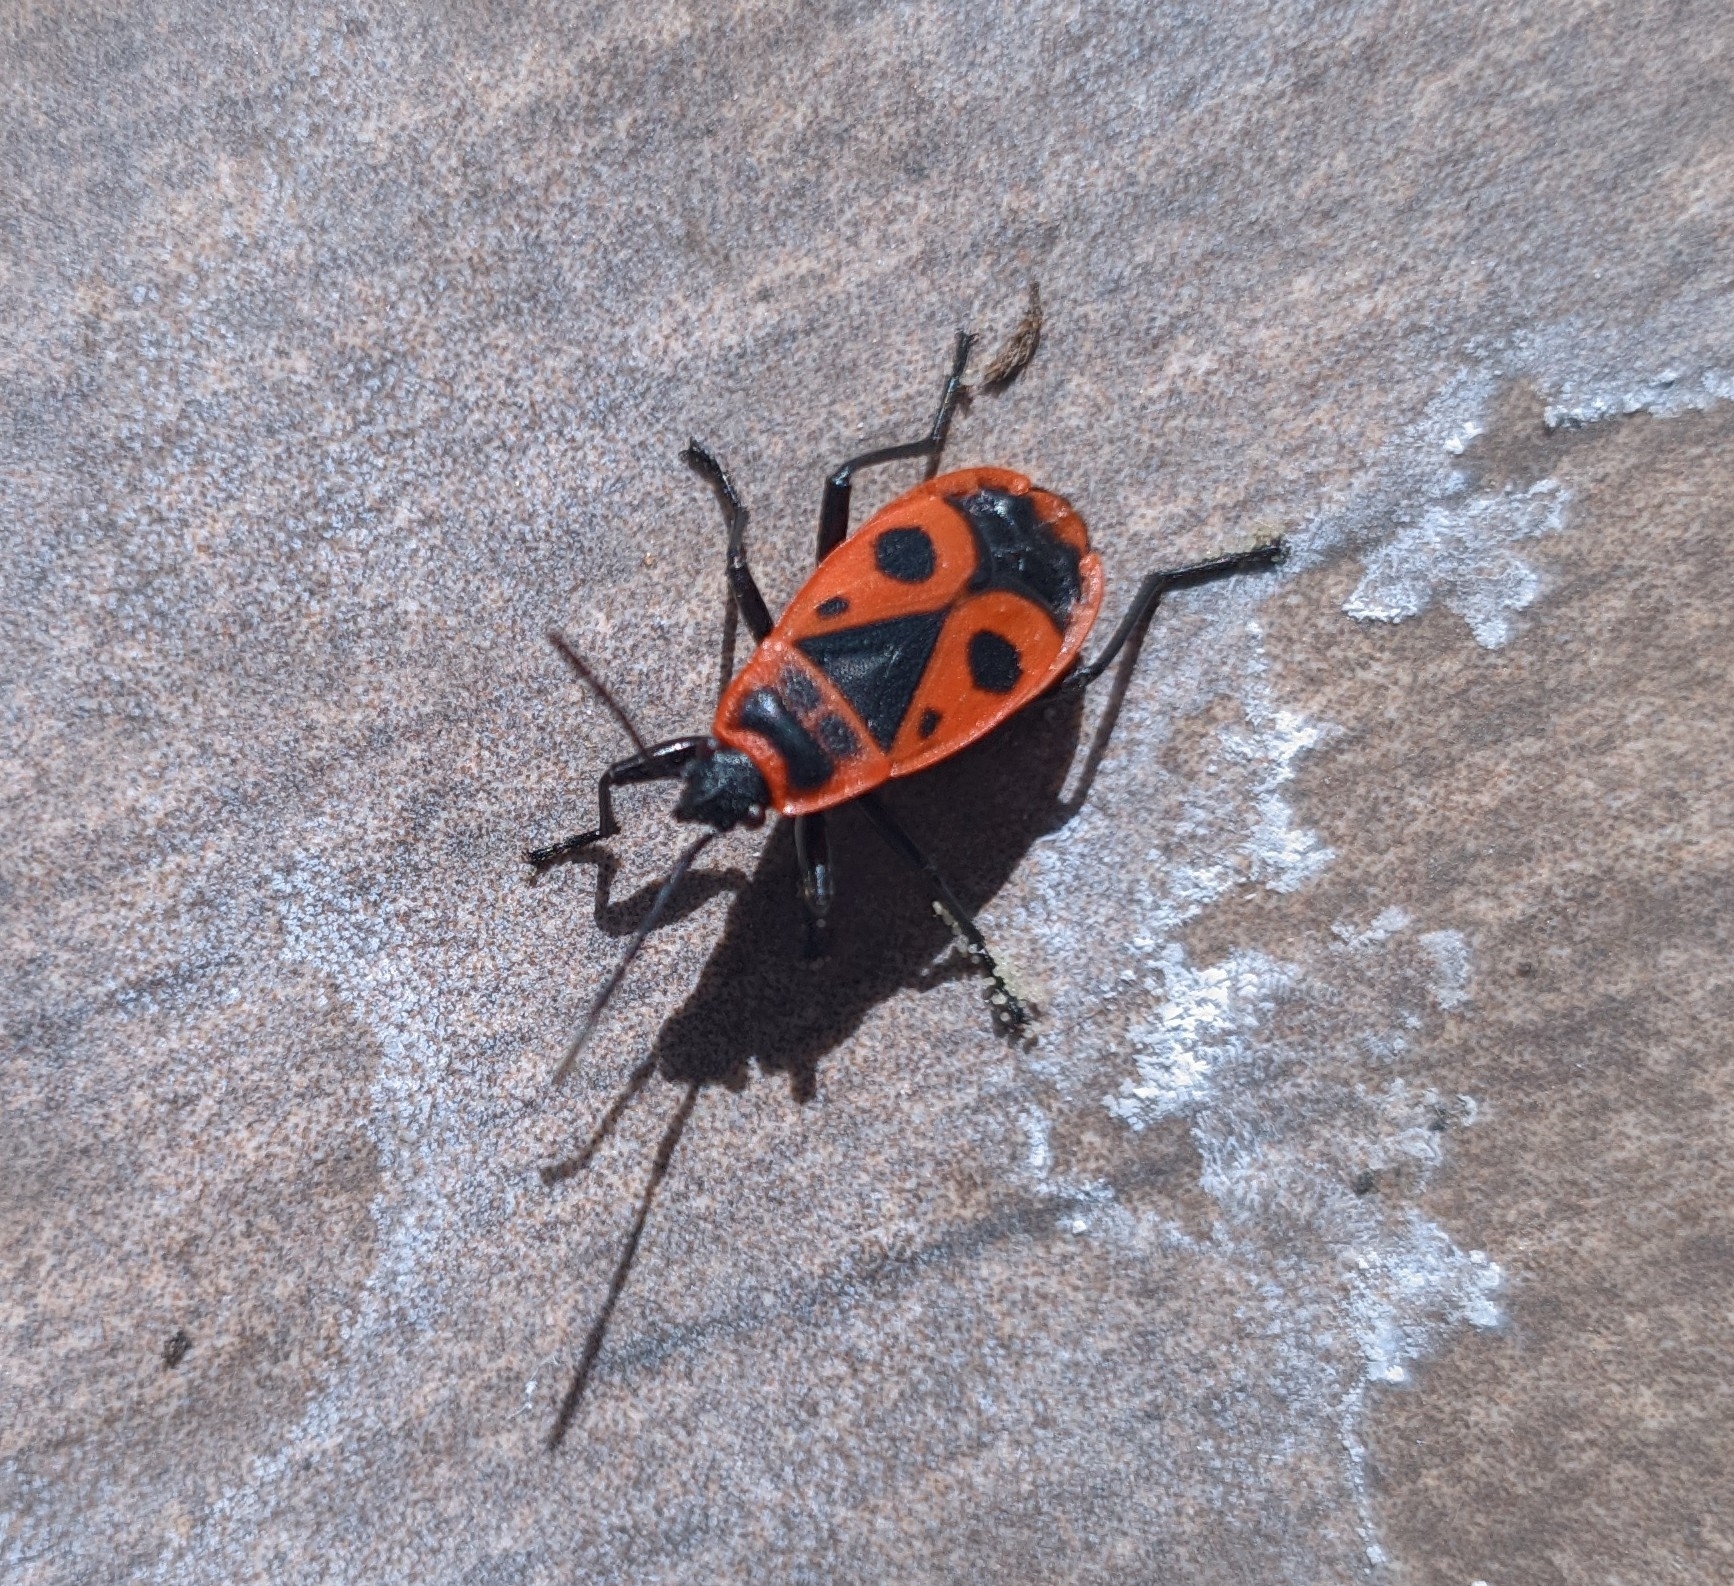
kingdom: Animalia
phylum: Arthropoda
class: Insecta
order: Hemiptera
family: Pyrrhocoridae
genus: Pyrrhocoris
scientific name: Pyrrhocoris apterus
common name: Firebug
